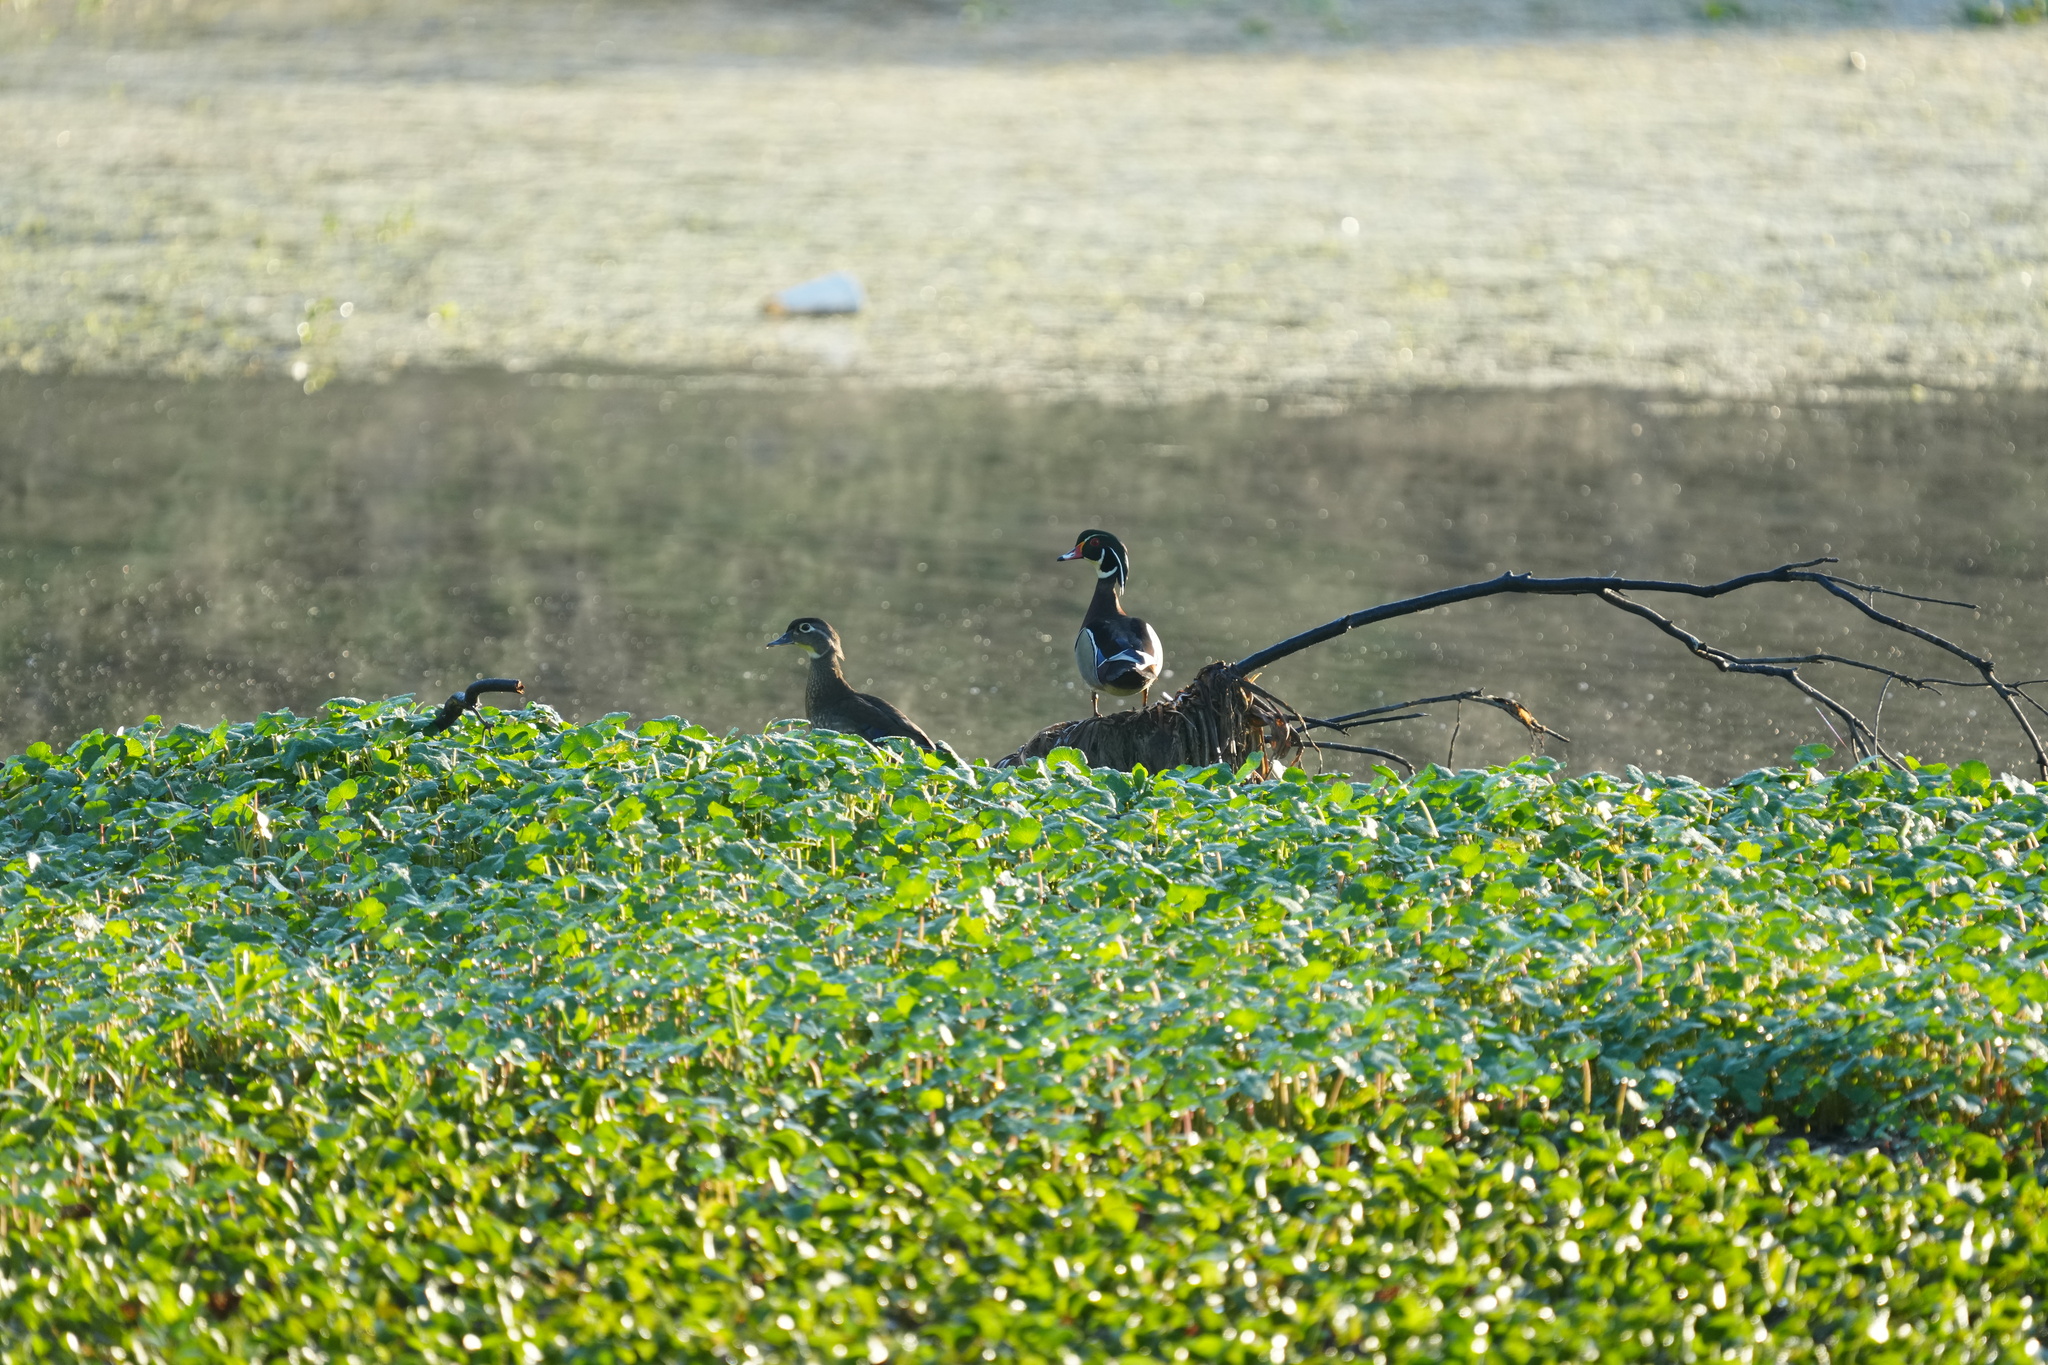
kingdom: Animalia
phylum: Chordata
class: Aves
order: Anseriformes
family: Anatidae
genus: Aix
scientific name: Aix sponsa
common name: Wood duck
